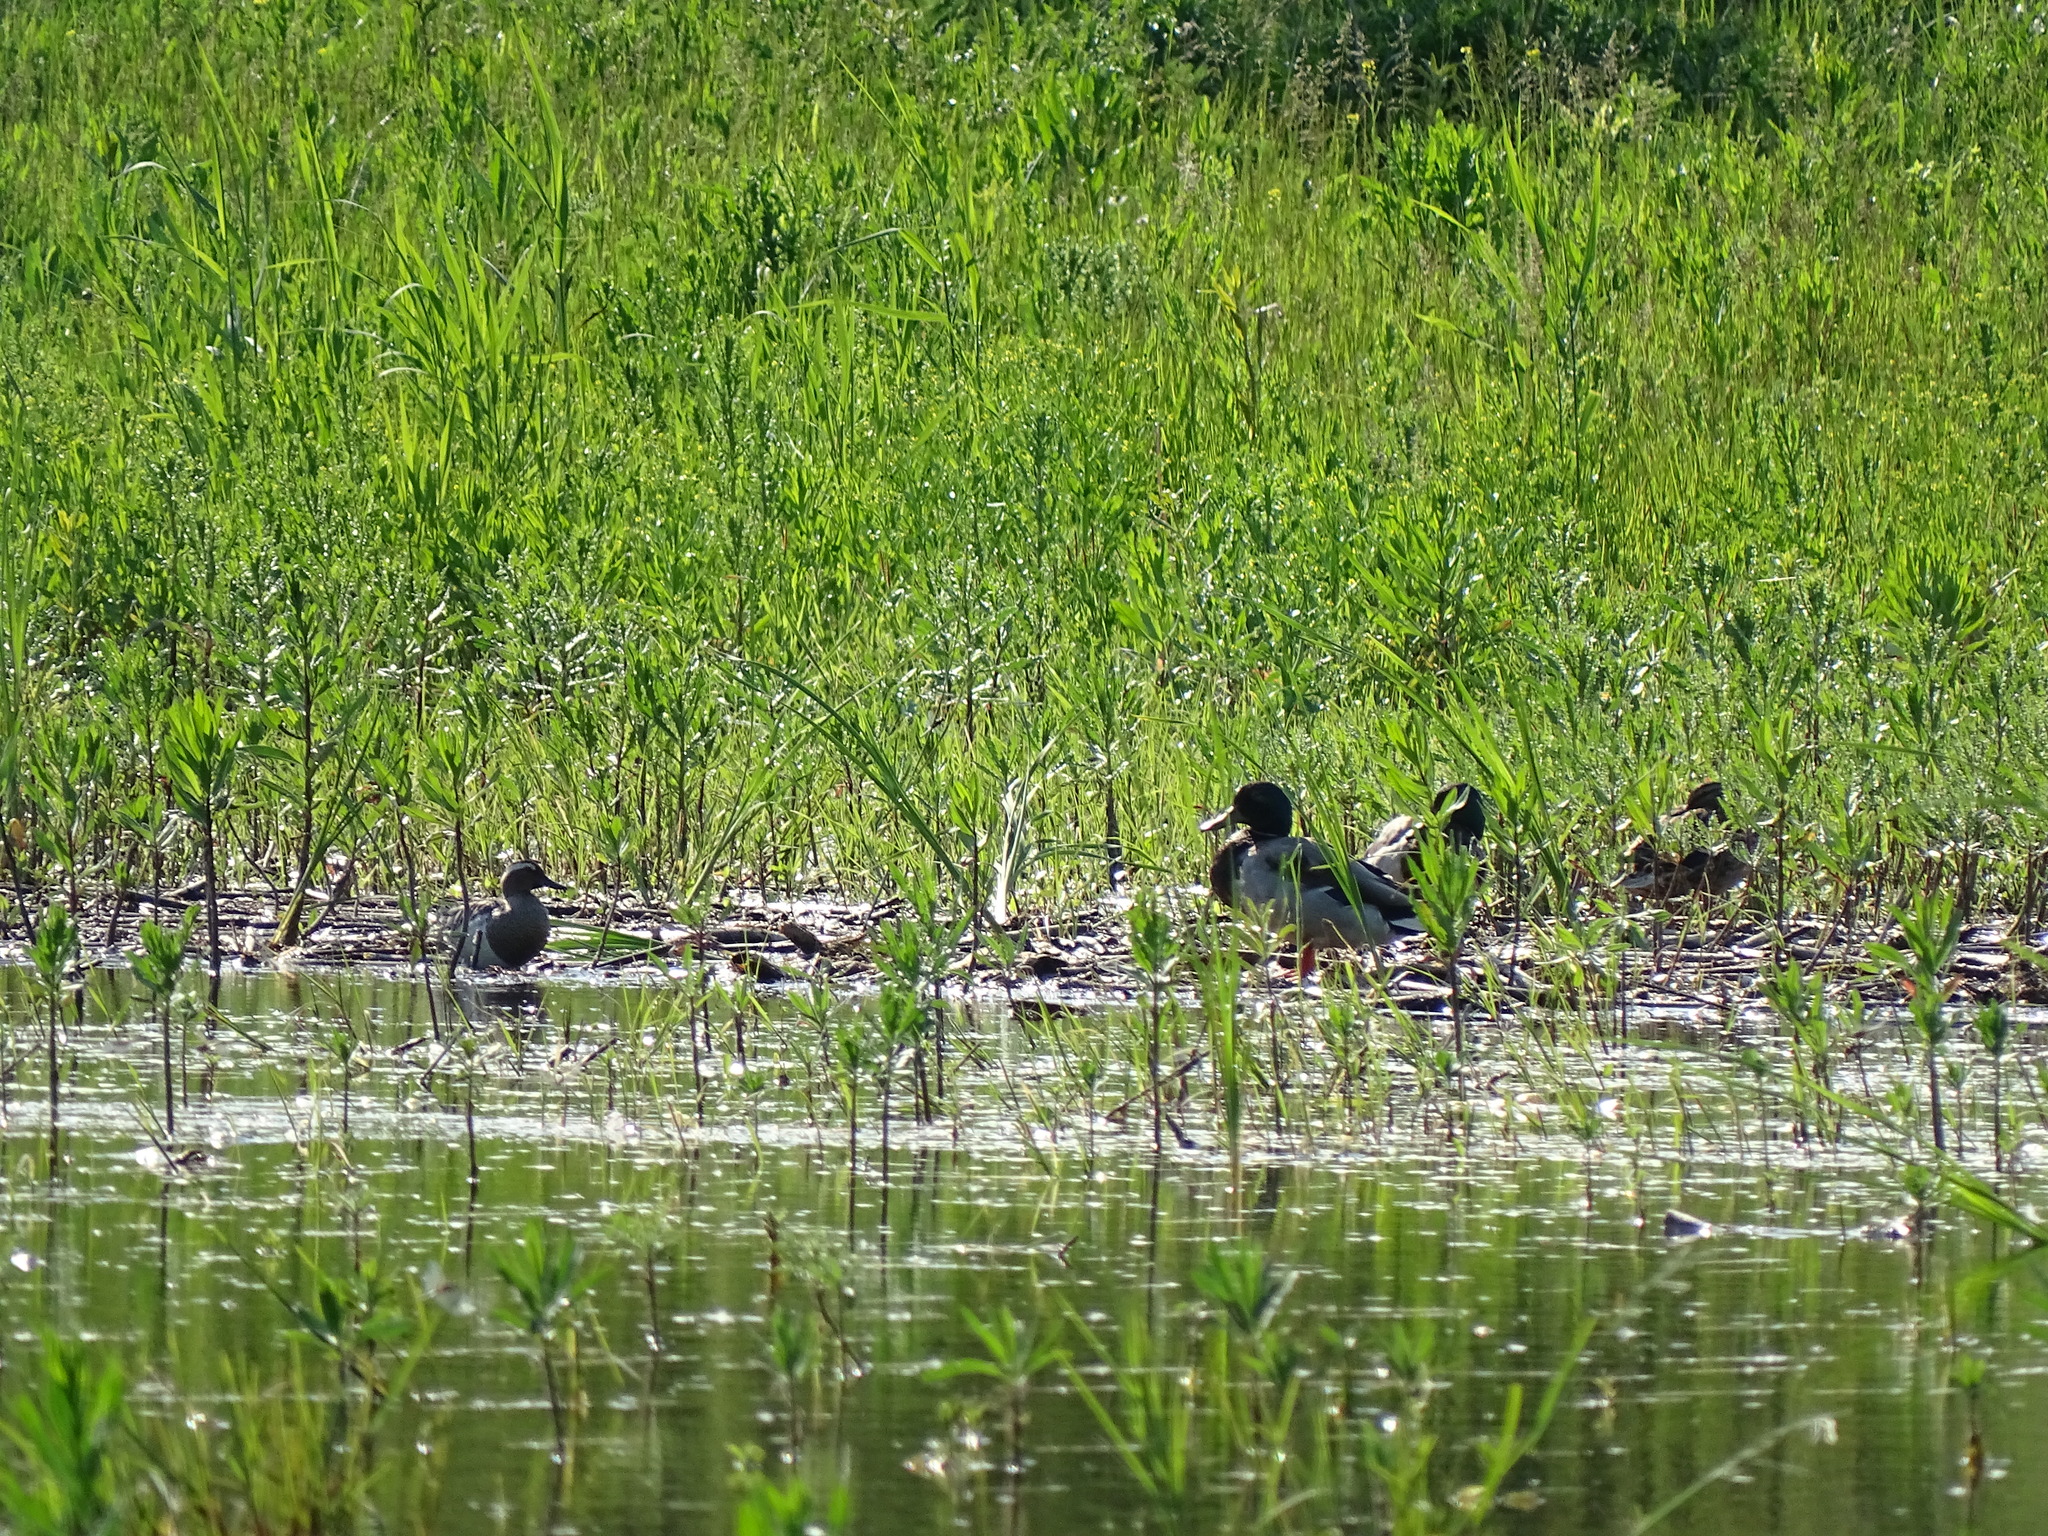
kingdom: Animalia
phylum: Chordata
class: Aves
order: Anseriformes
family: Anatidae
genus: Spatula
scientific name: Spatula querquedula
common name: Garganey
